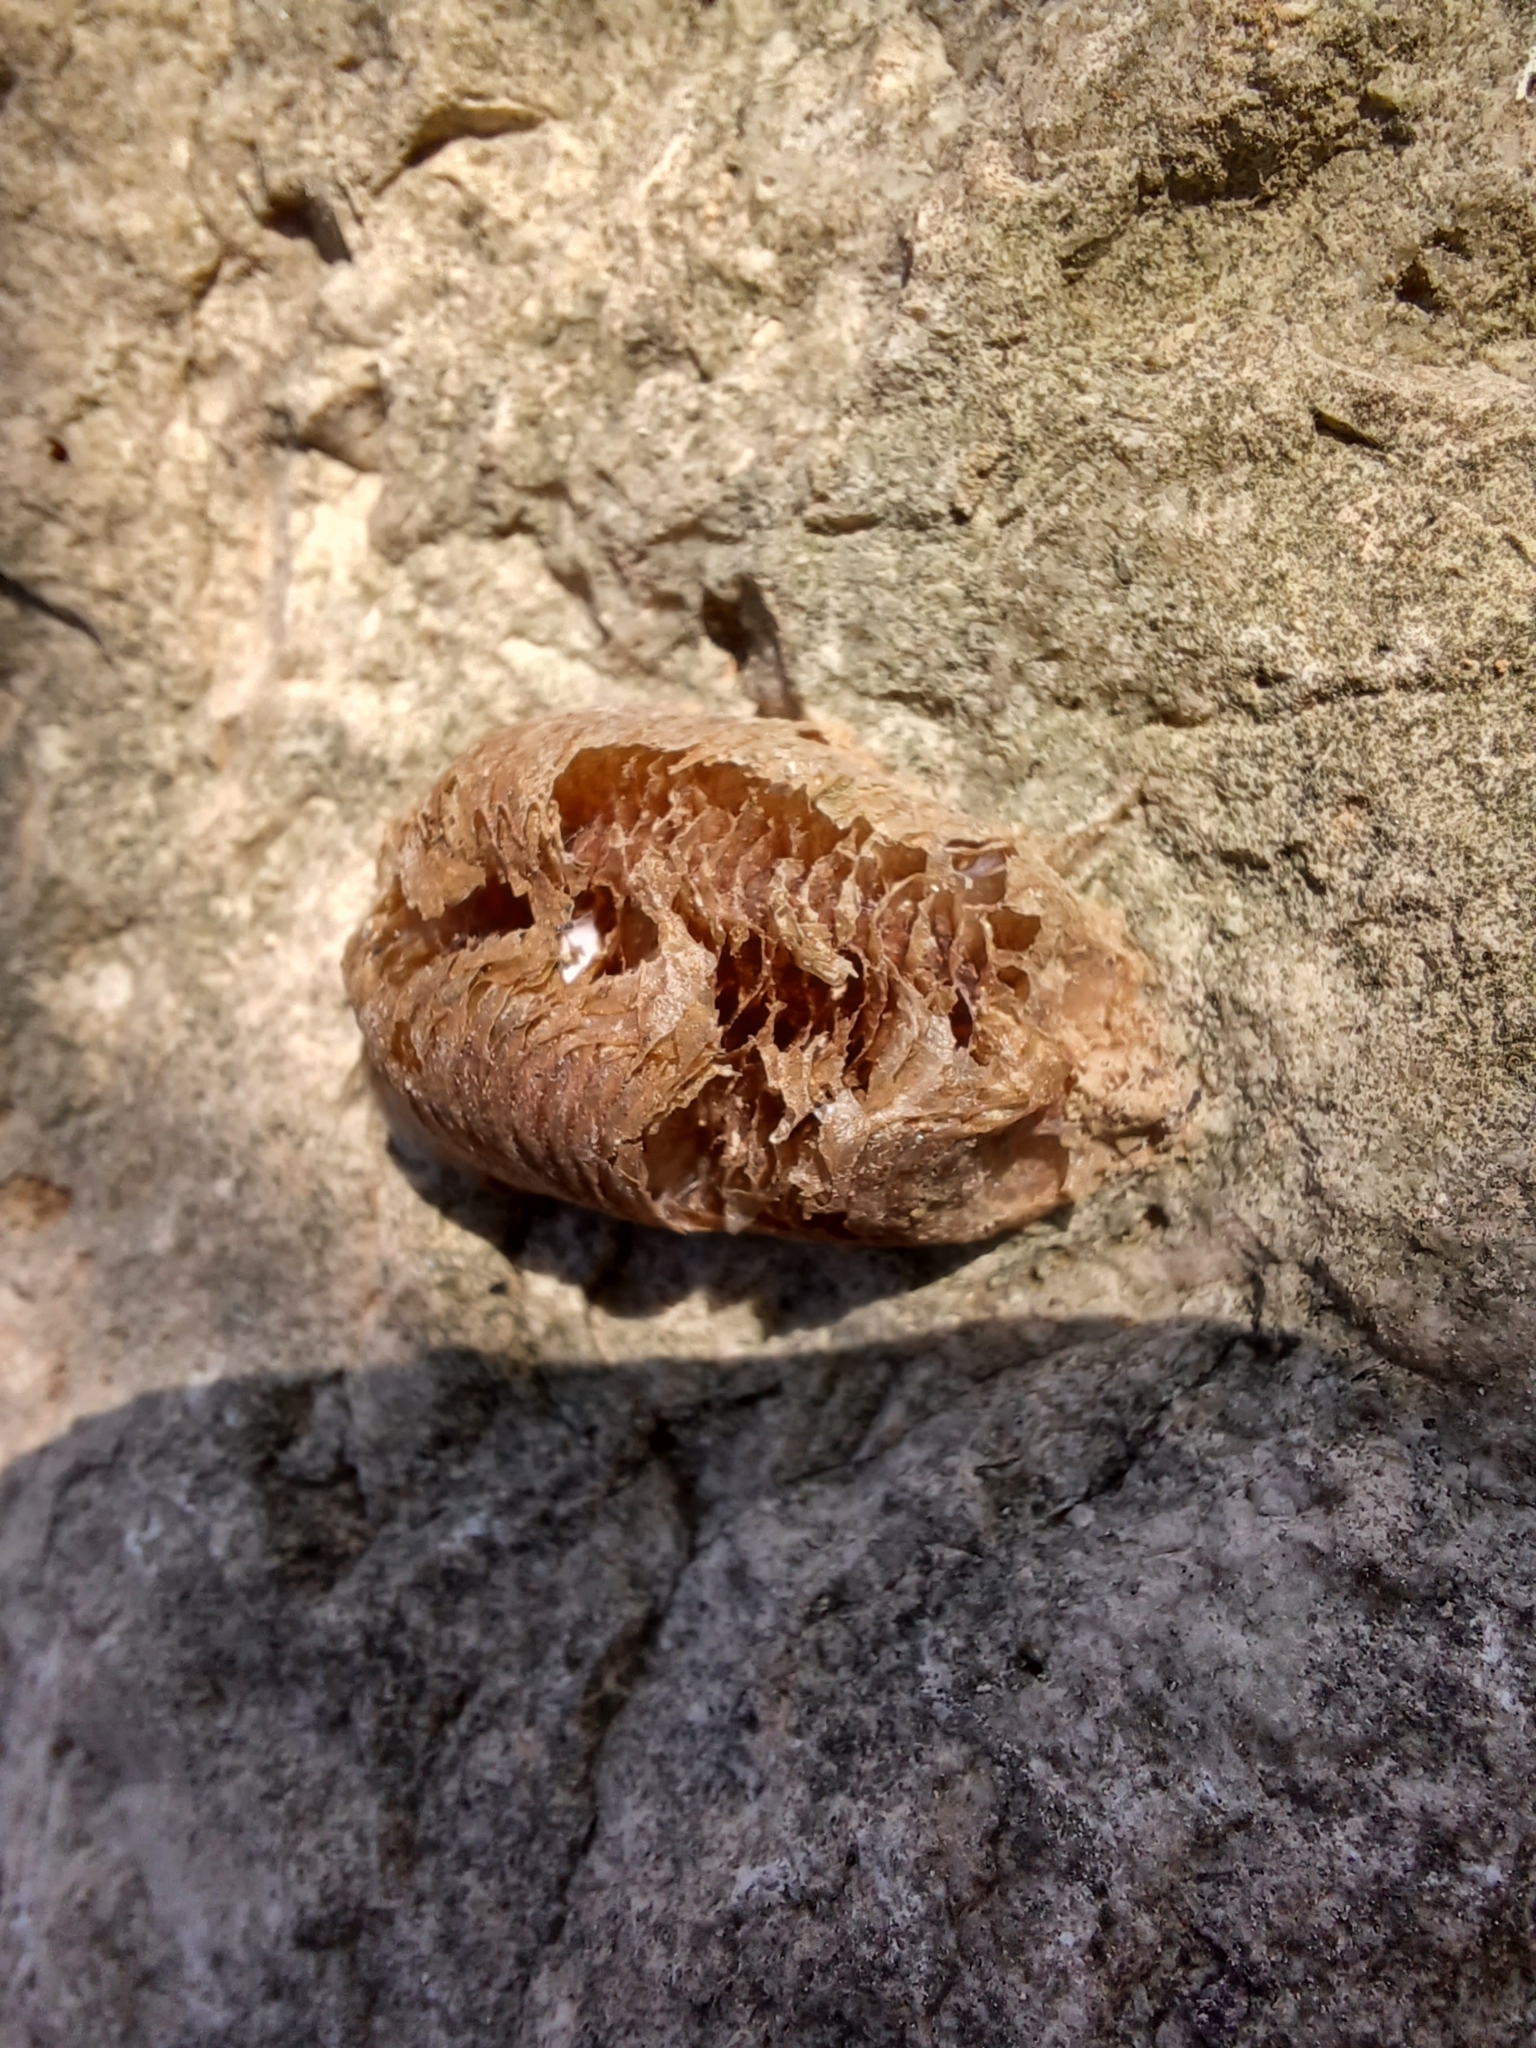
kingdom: Animalia
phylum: Arthropoda
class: Insecta
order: Mantodea
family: Mantidae
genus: Mantis
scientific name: Mantis religiosa
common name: Praying mantis
